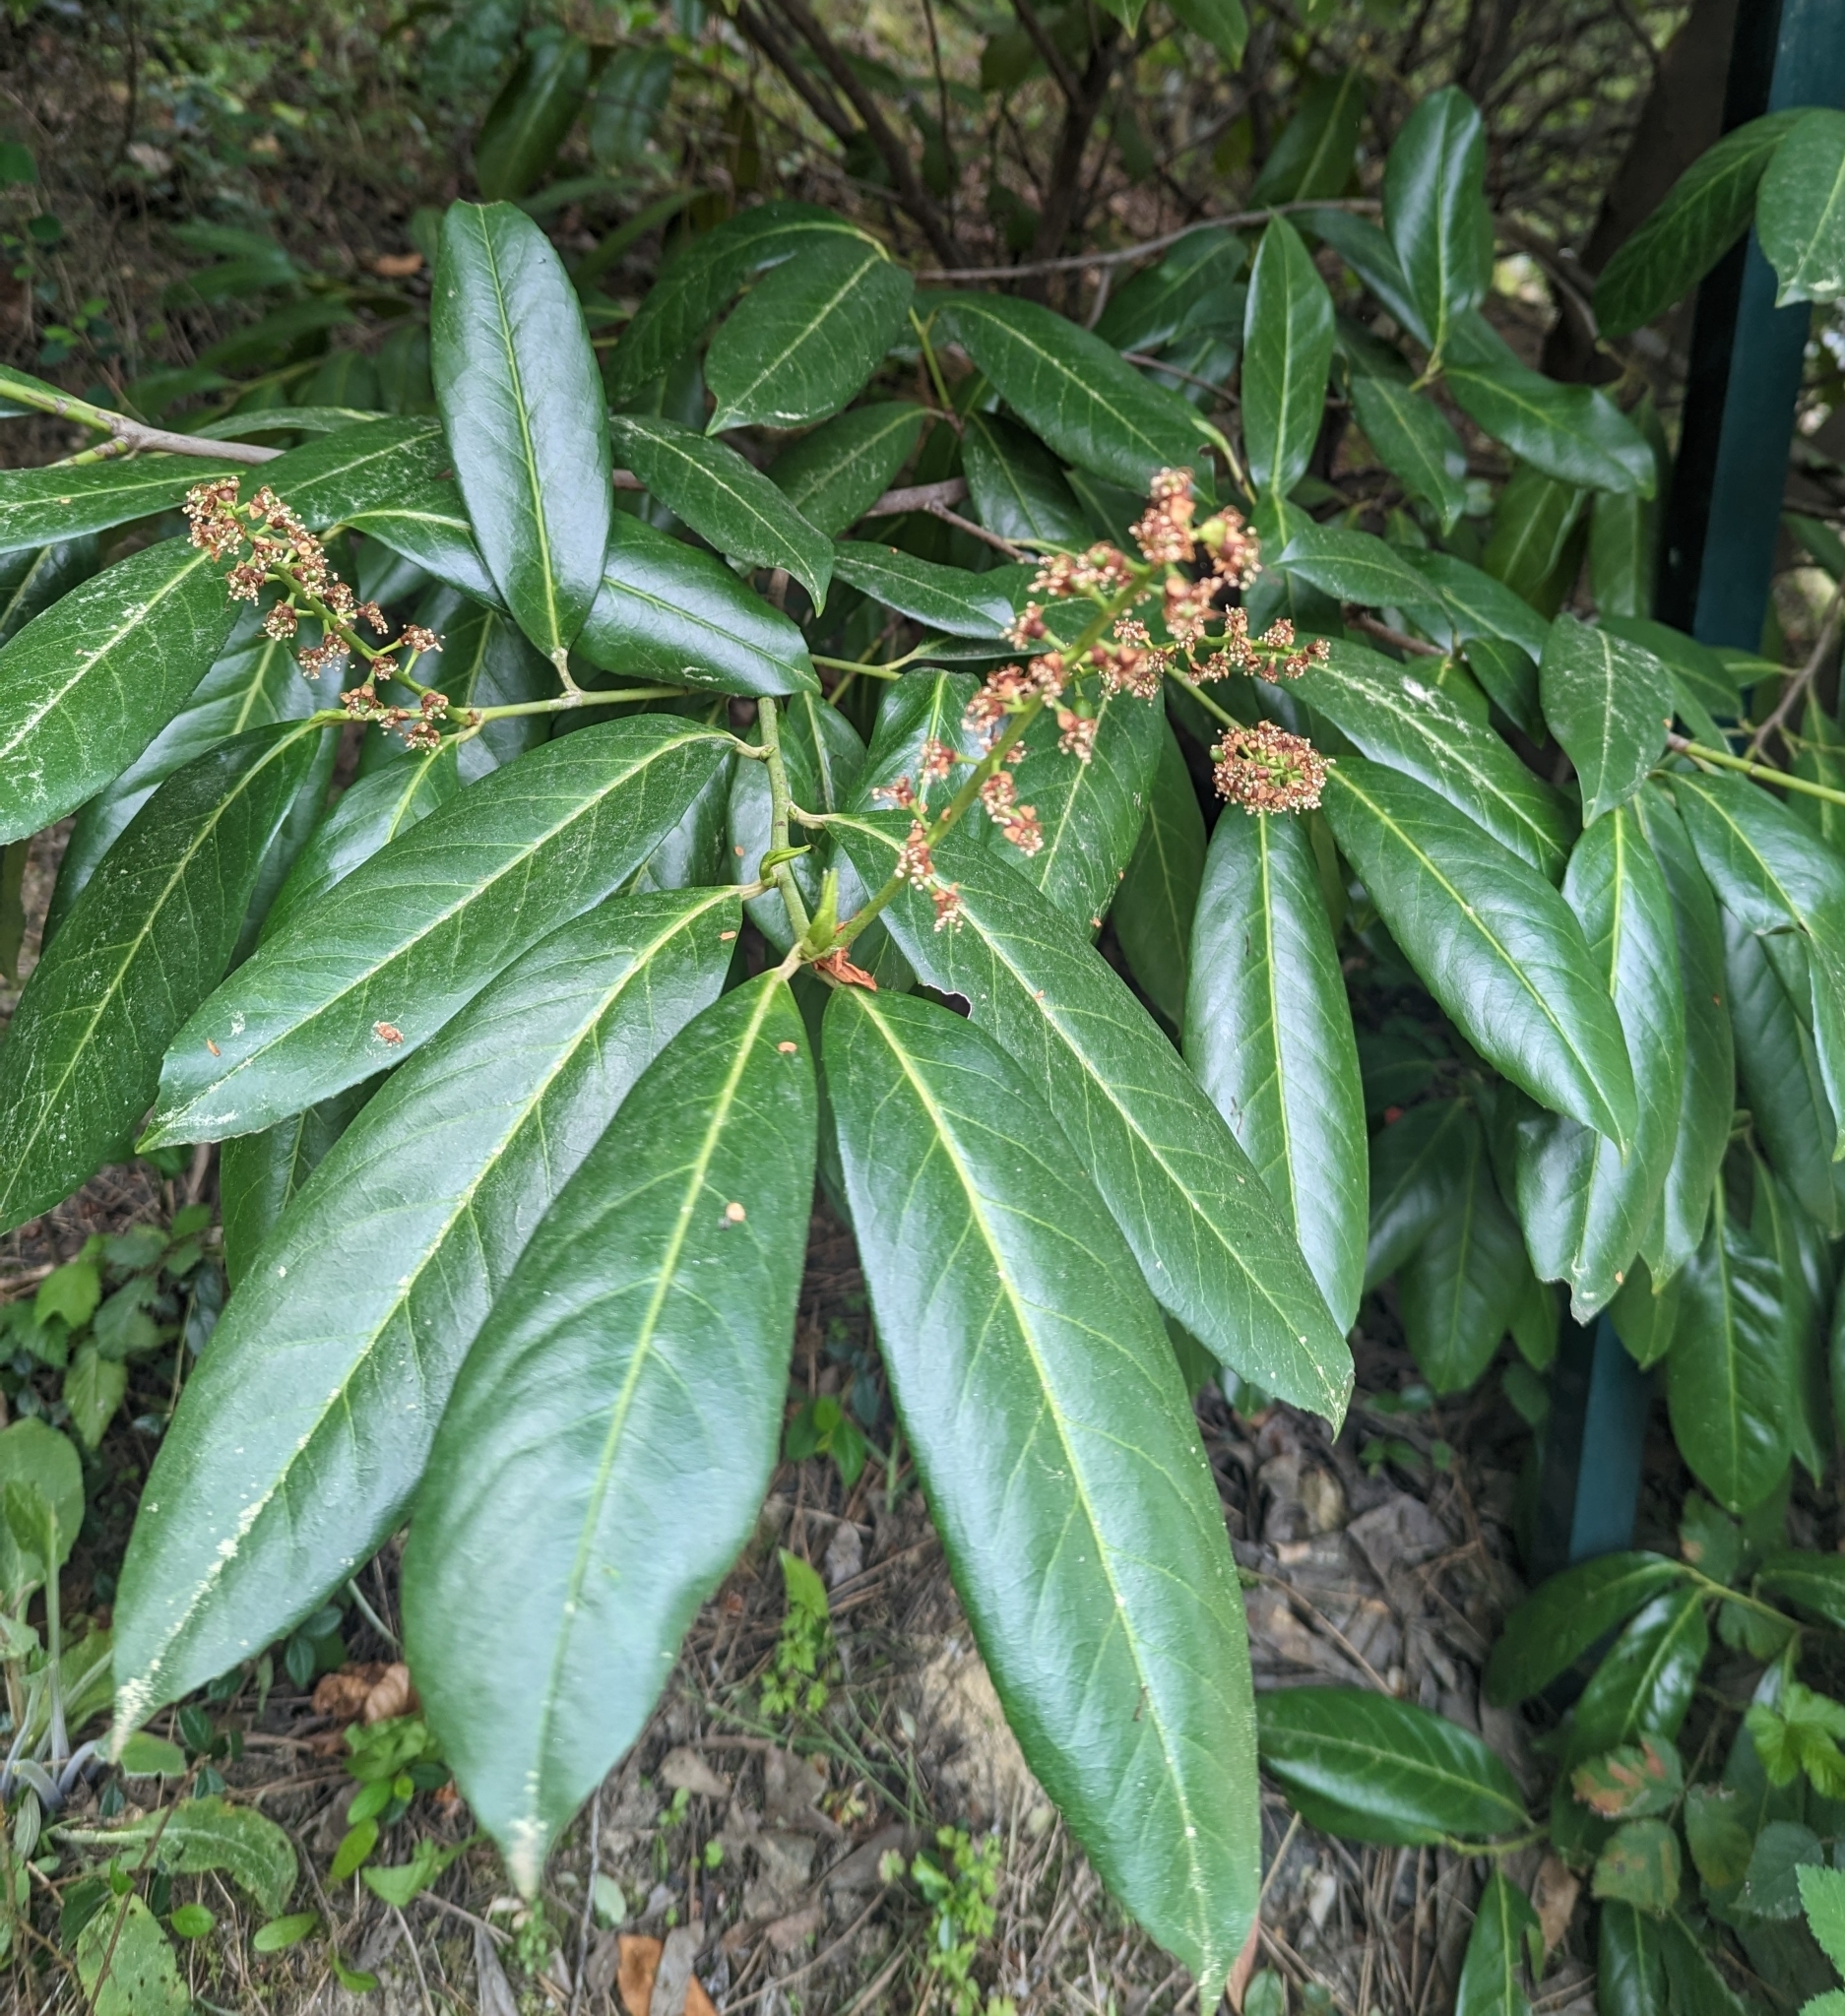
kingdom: Plantae
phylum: Tracheophyta
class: Magnoliopsida
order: Rosales
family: Rosaceae
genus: Prunus
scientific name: Prunus laurocerasus
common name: Cherry laurel
